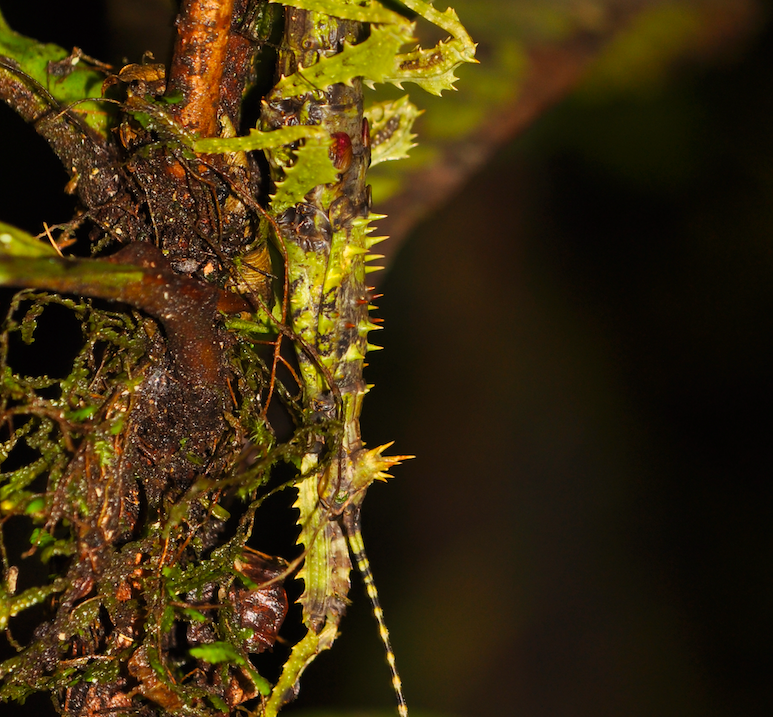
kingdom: Animalia
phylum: Arthropoda
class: Insecta
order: Phasmida
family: Anisacanthidae
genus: Parectatosoma
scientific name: Parectatosoma echinus
